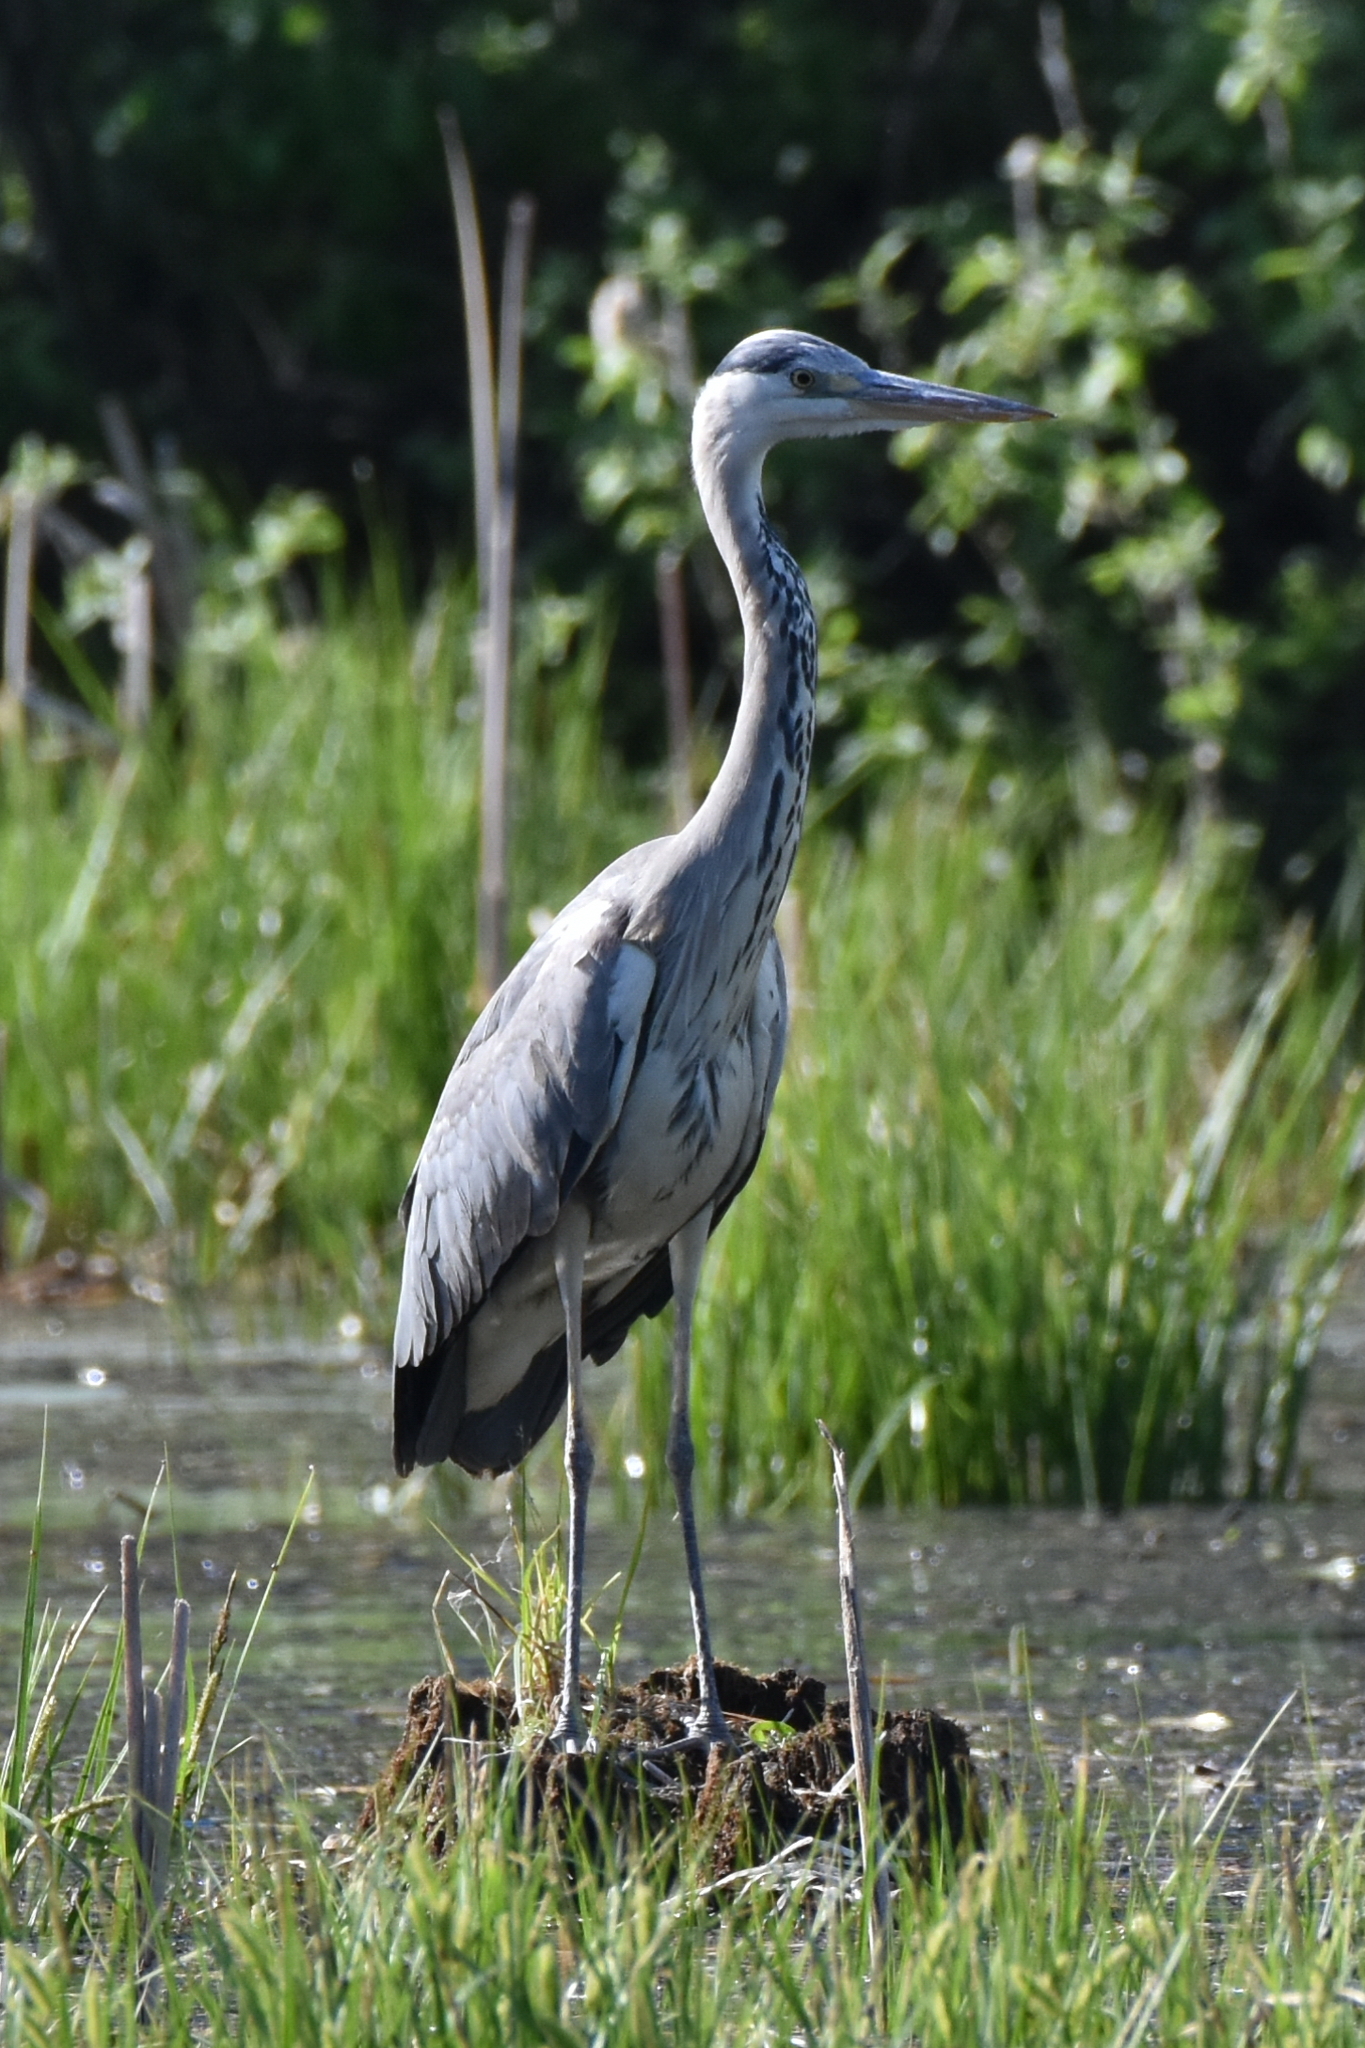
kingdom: Animalia
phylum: Chordata
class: Aves
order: Pelecaniformes
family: Ardeidae
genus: Ardea
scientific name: Ardea cinerea
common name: Grey heron
